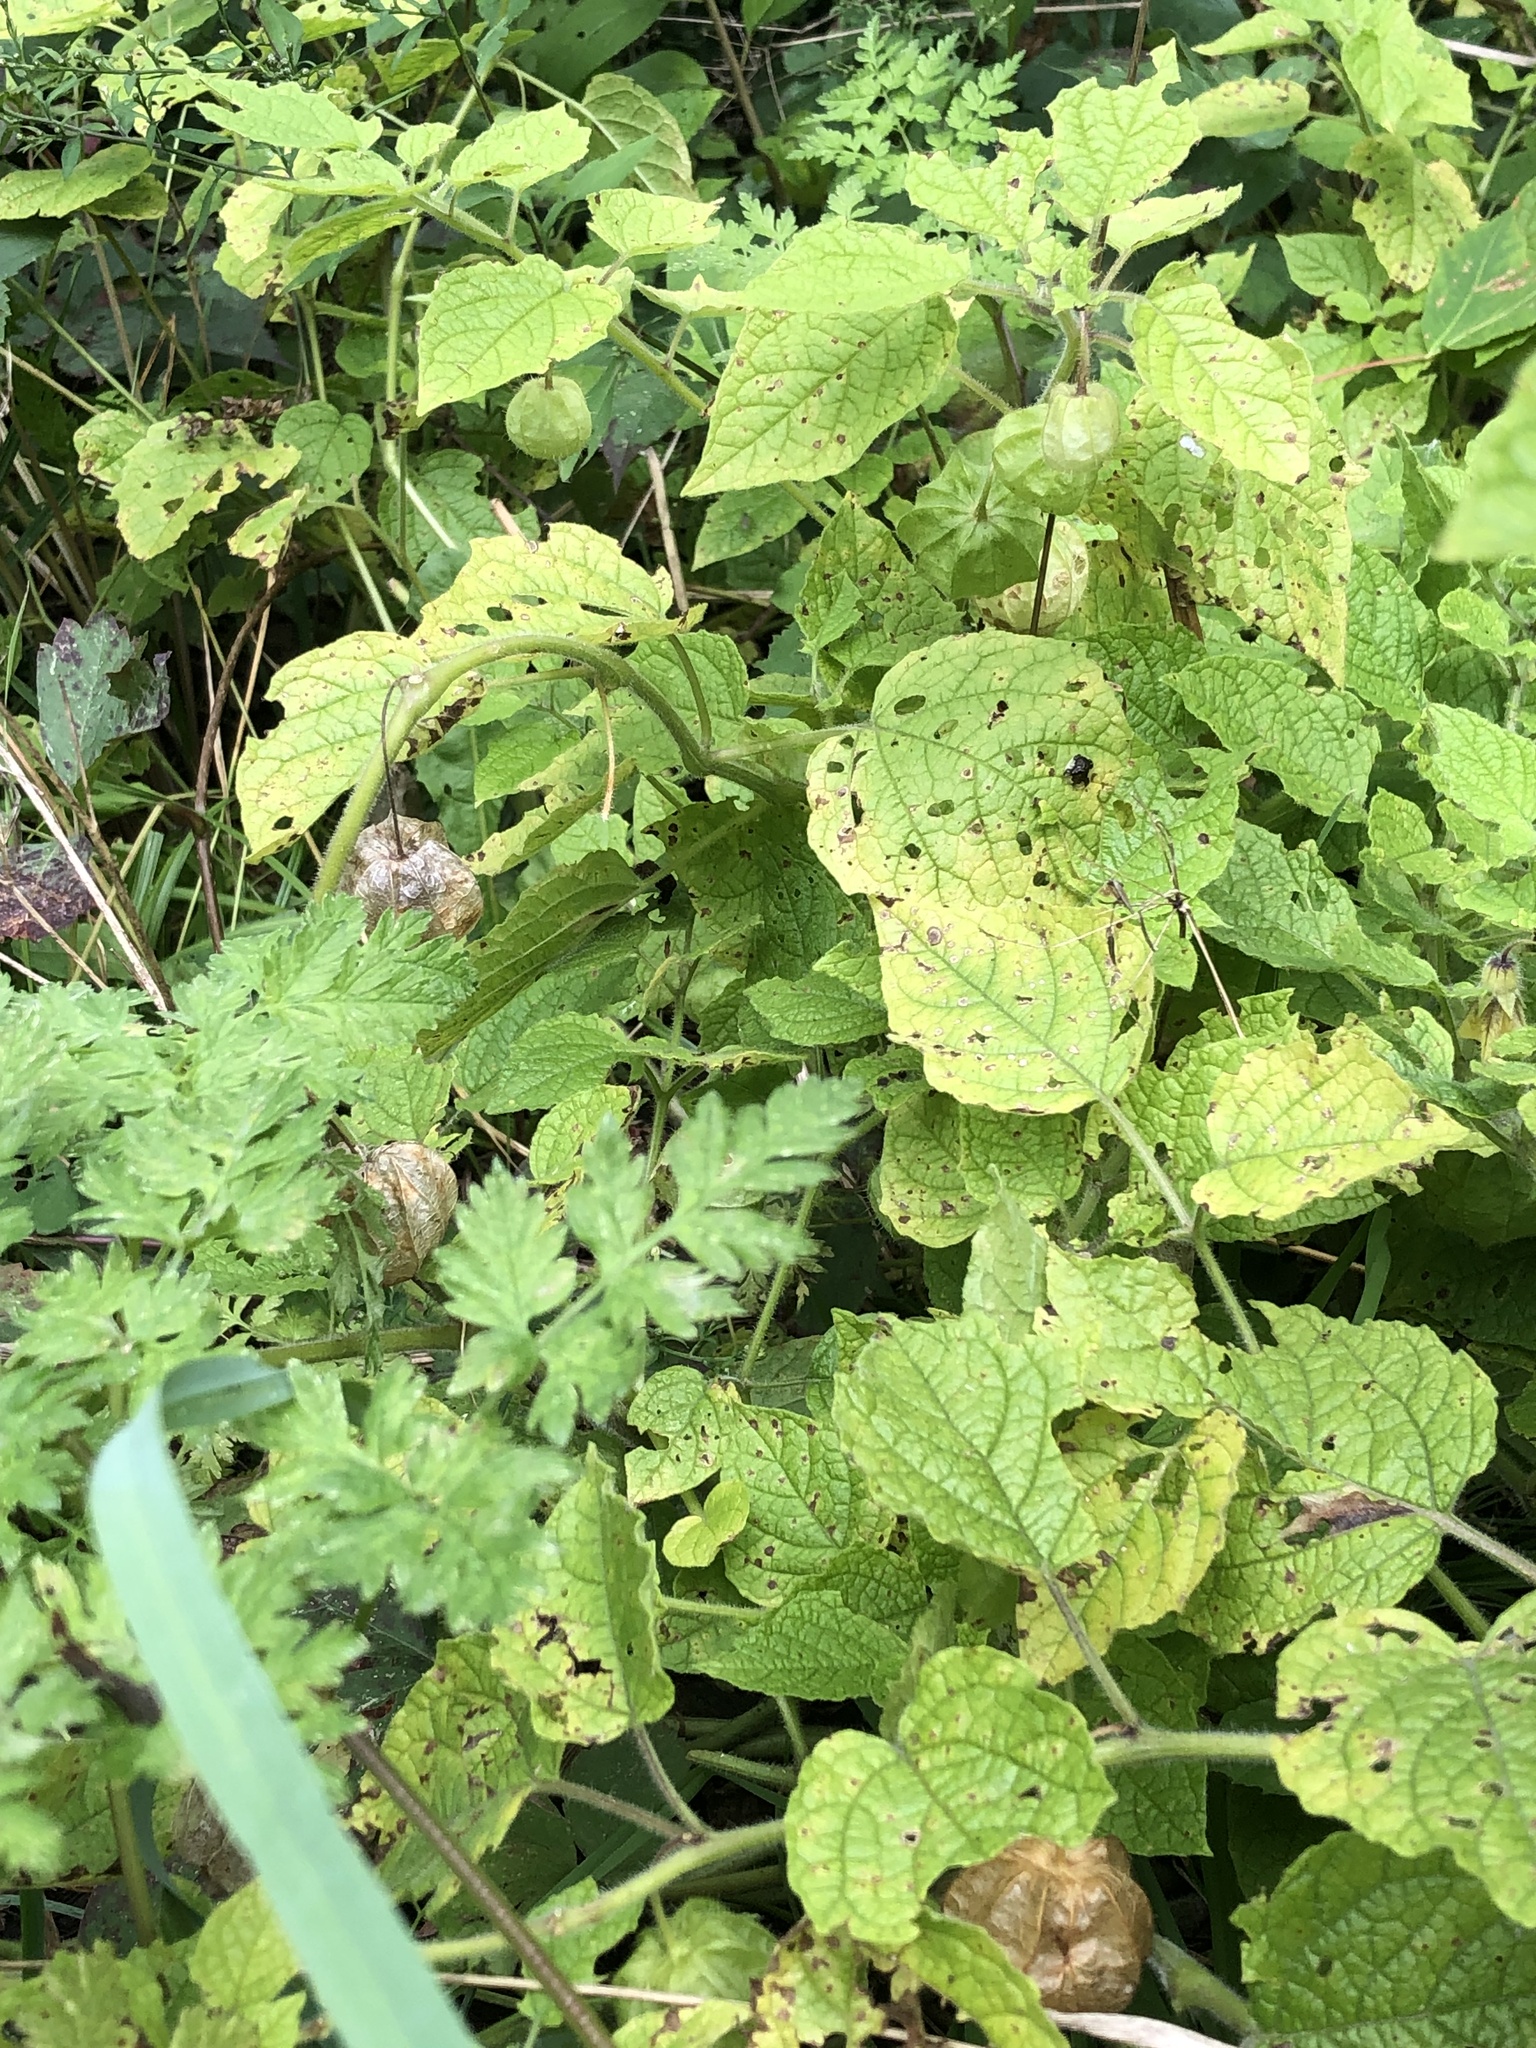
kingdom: Plantae
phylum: Tracheophyta
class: Magnoliopsida
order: Solanales
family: Solanaceae
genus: Physalis
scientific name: Physalis heterophylla
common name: Clammy ground-cherry
